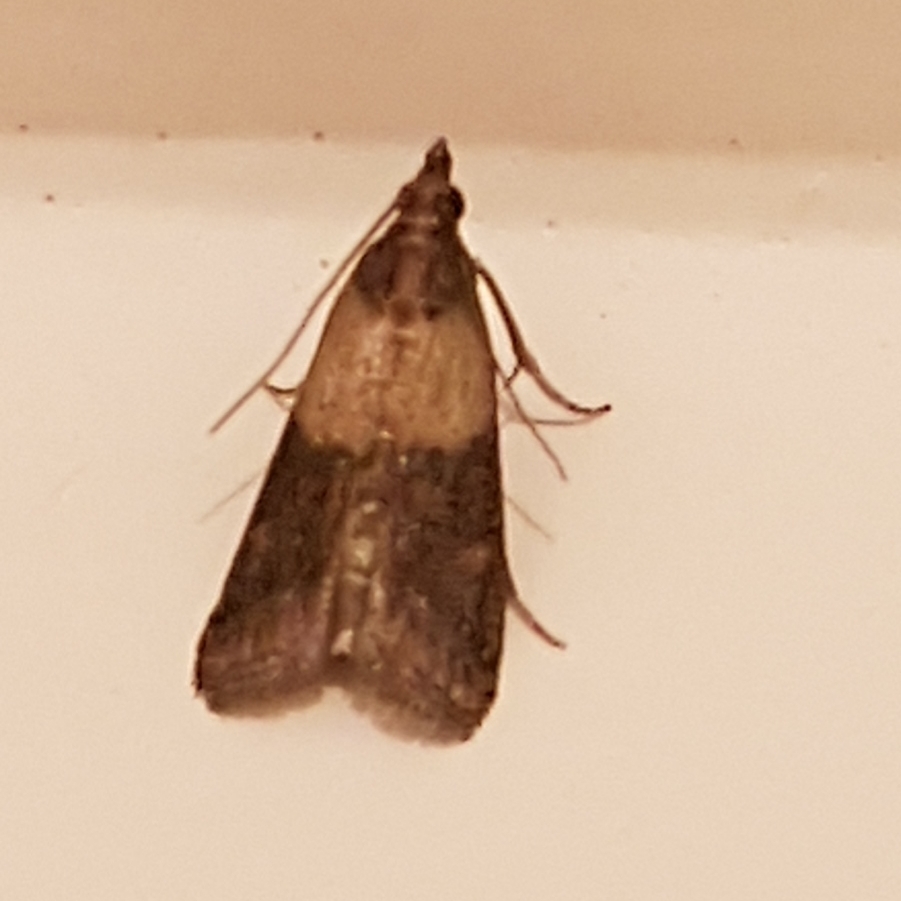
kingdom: Animalia
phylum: Arthropoda
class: Insecta
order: Lepidoptera
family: Pyralidae
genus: Plodia
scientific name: Plodia interpunctella
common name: Indian meal moth
